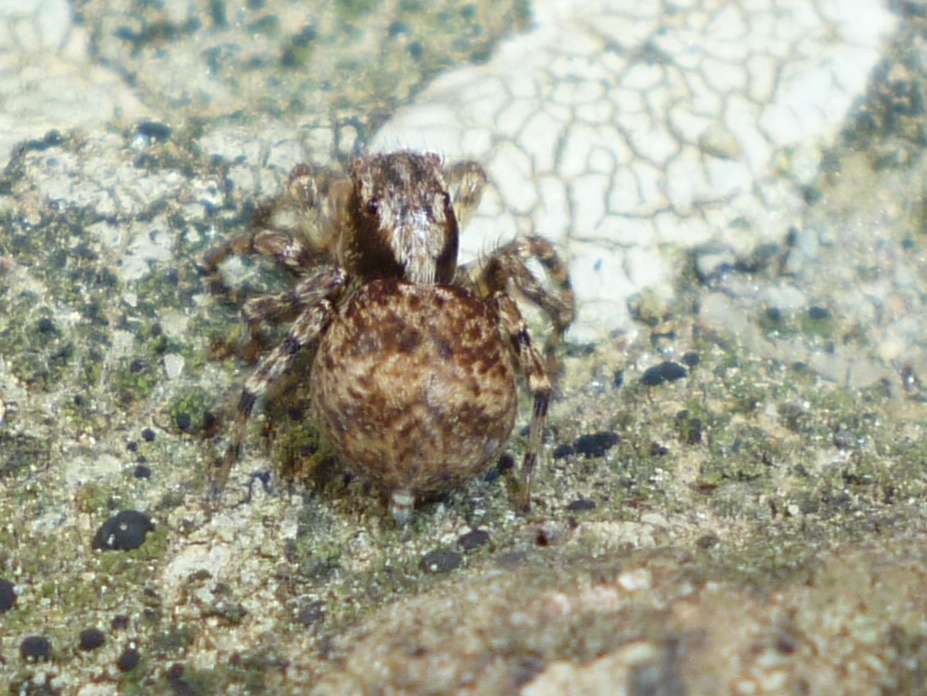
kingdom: Animalia
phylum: Arthropoda
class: Arachnida
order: Araneae
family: Salticidae
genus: Naphrys
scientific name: Naphrys pulex
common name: Flea jumping spider
